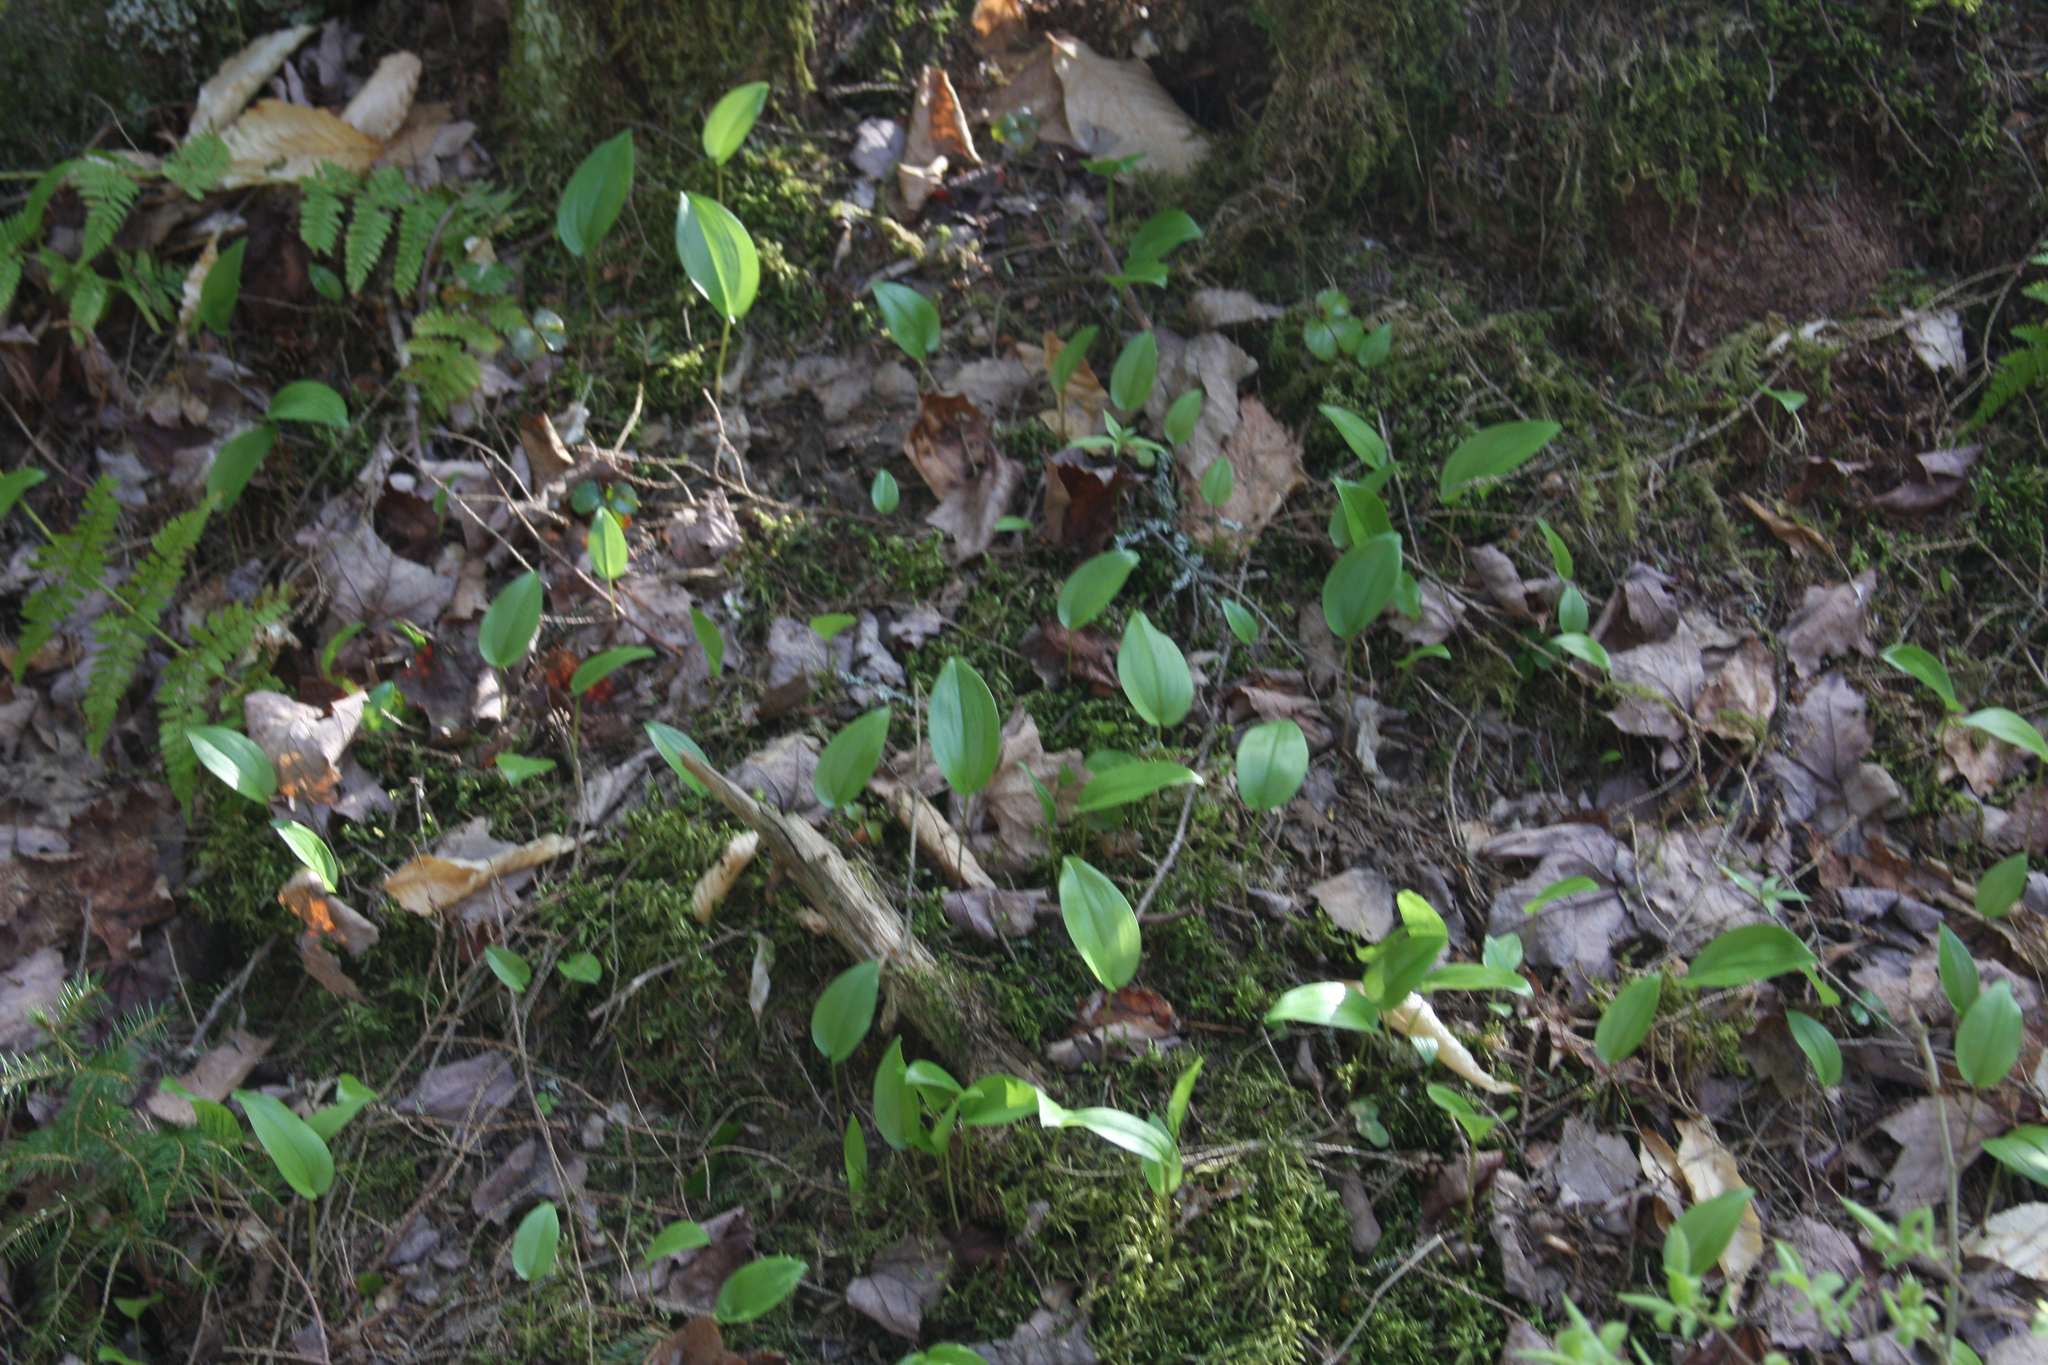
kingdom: Plantae
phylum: Tracheophyta
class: Liliopsida
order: Asparagales
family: Asparagaceae
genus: Maianthemum
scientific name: Maianthemum canadense
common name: False lily-of-the-valley
